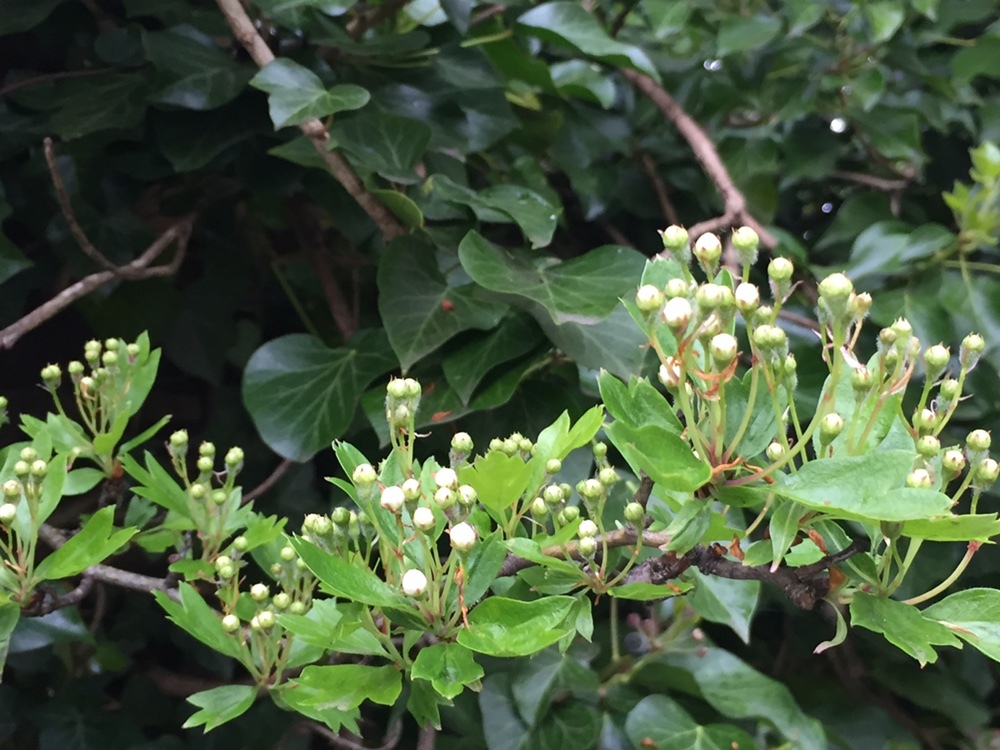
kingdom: Plantae
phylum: Tracheophyta
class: Magnoliopsida
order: Rosales
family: Rosaceae
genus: Crataegus
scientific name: Crataegus monogyna
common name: Hawthorn
